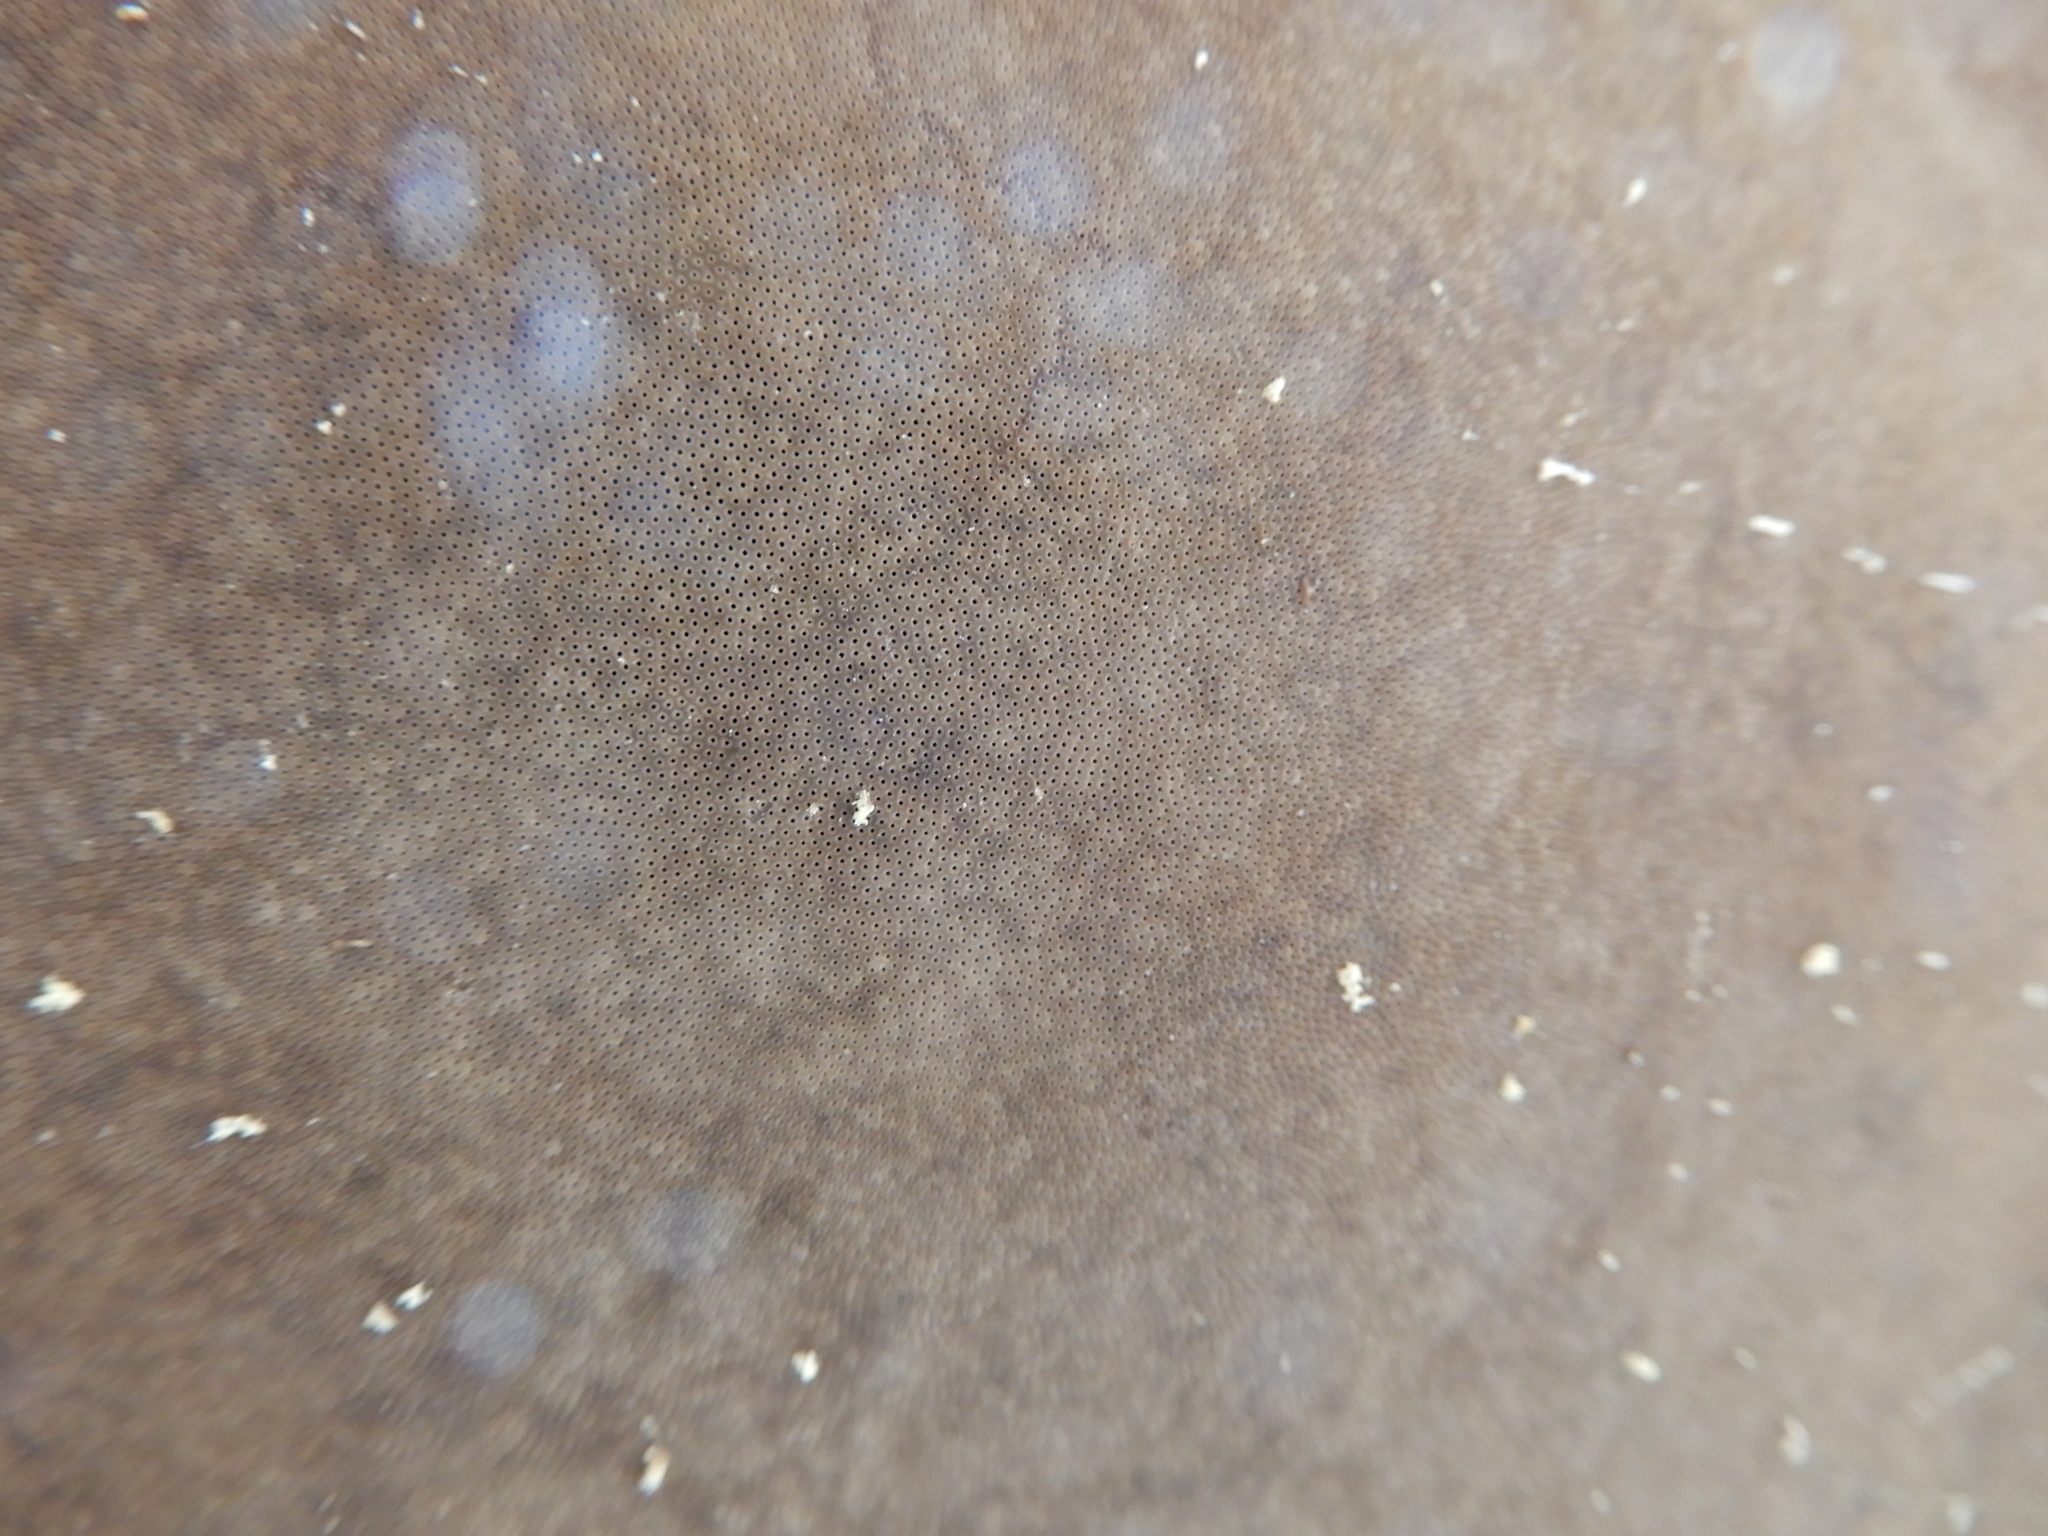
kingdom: Fungi
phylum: Basidiomycota
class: Agaricomycetes
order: Polyporales
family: Polyporaceae
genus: Fomes
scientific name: Fomes fomentarius
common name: Hoof fungus
